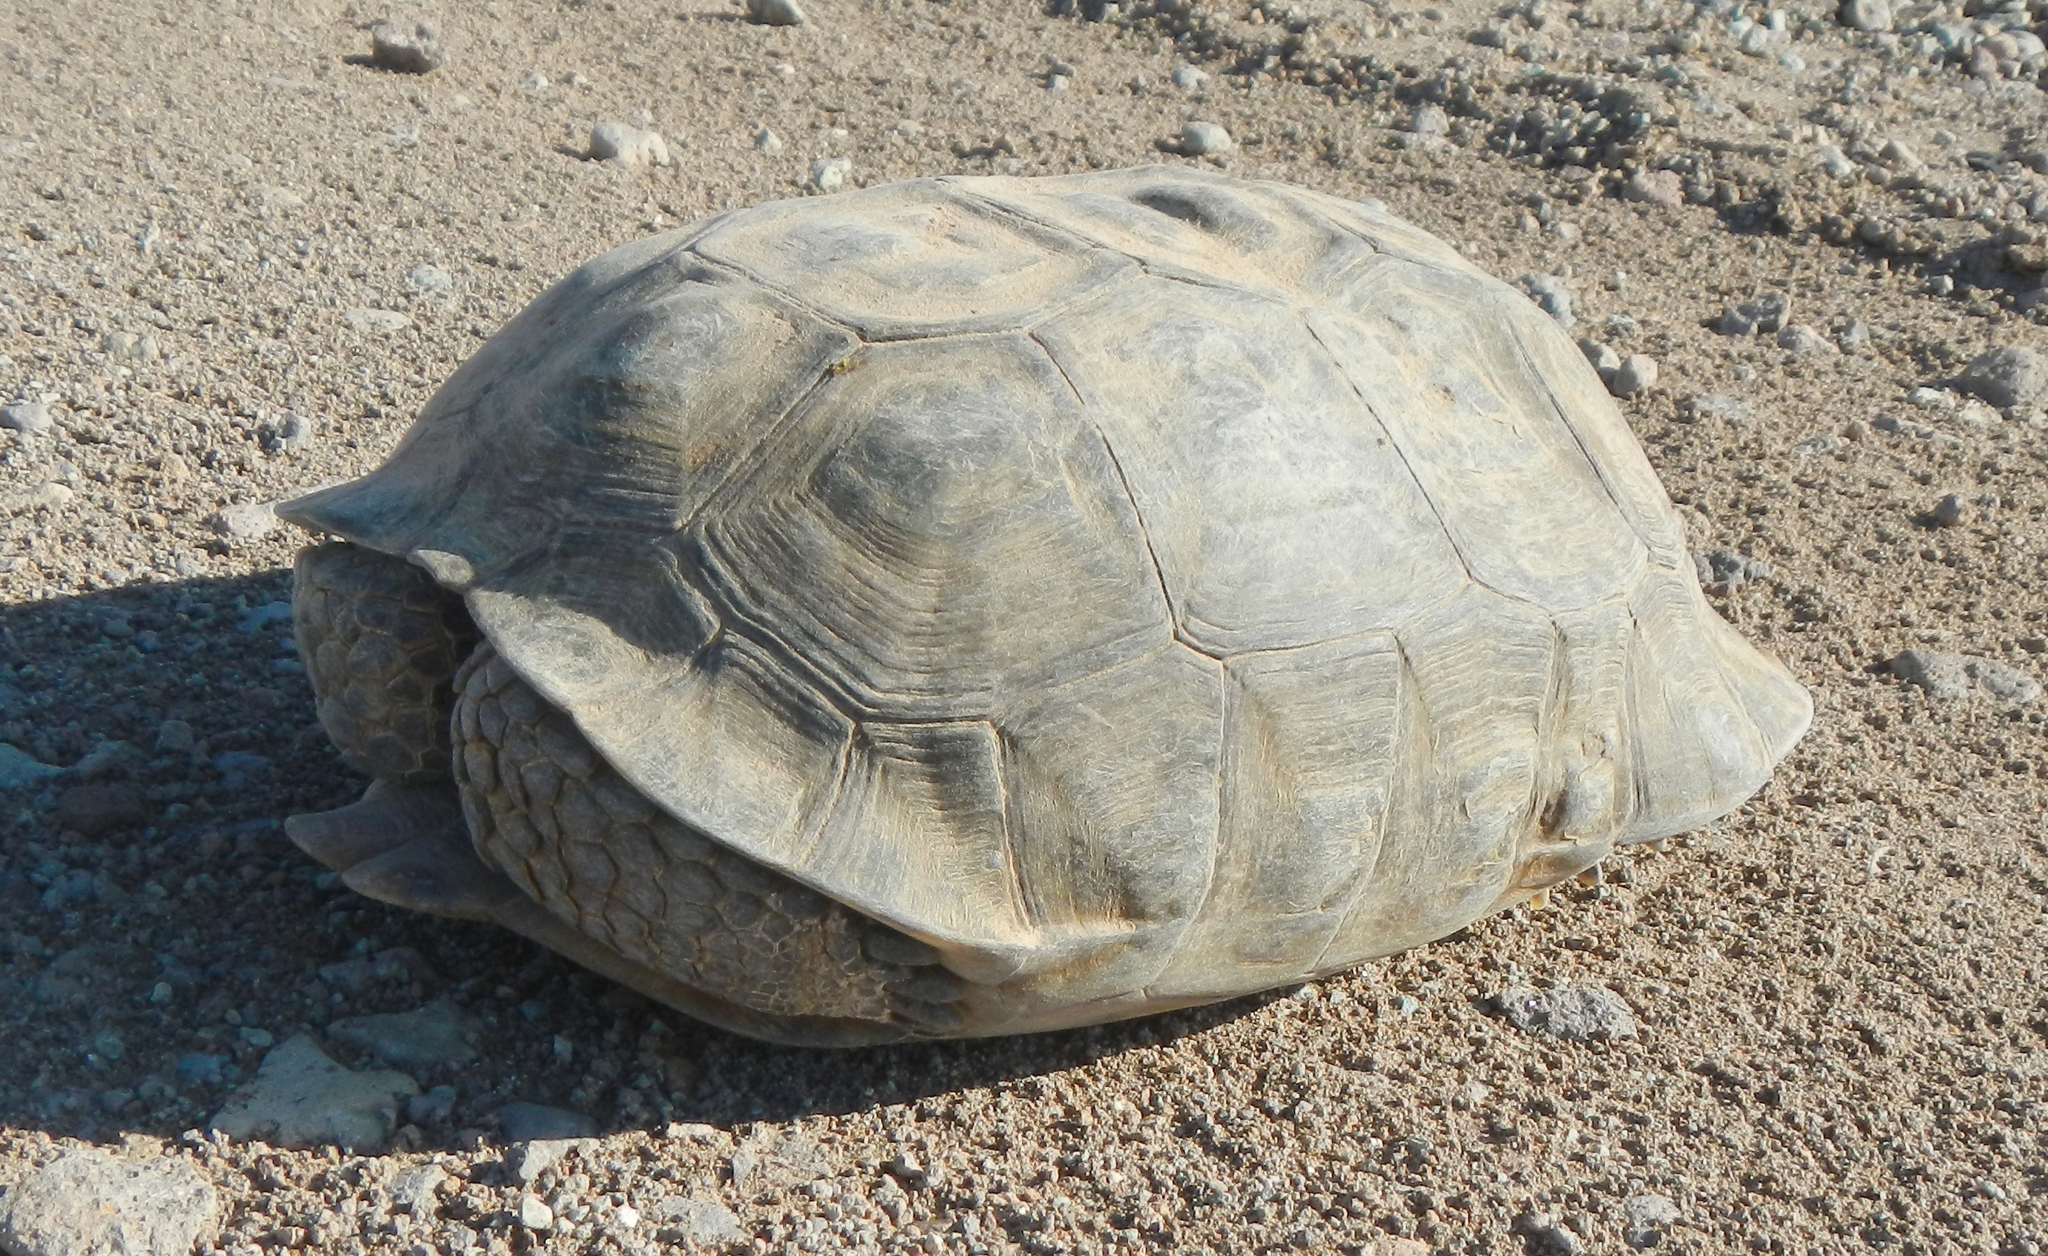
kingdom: Animalia
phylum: Chordata
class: Testudines
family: Testudinidae
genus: Gopherus
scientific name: Gopherus agassizii
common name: Mojave desert tortoise
